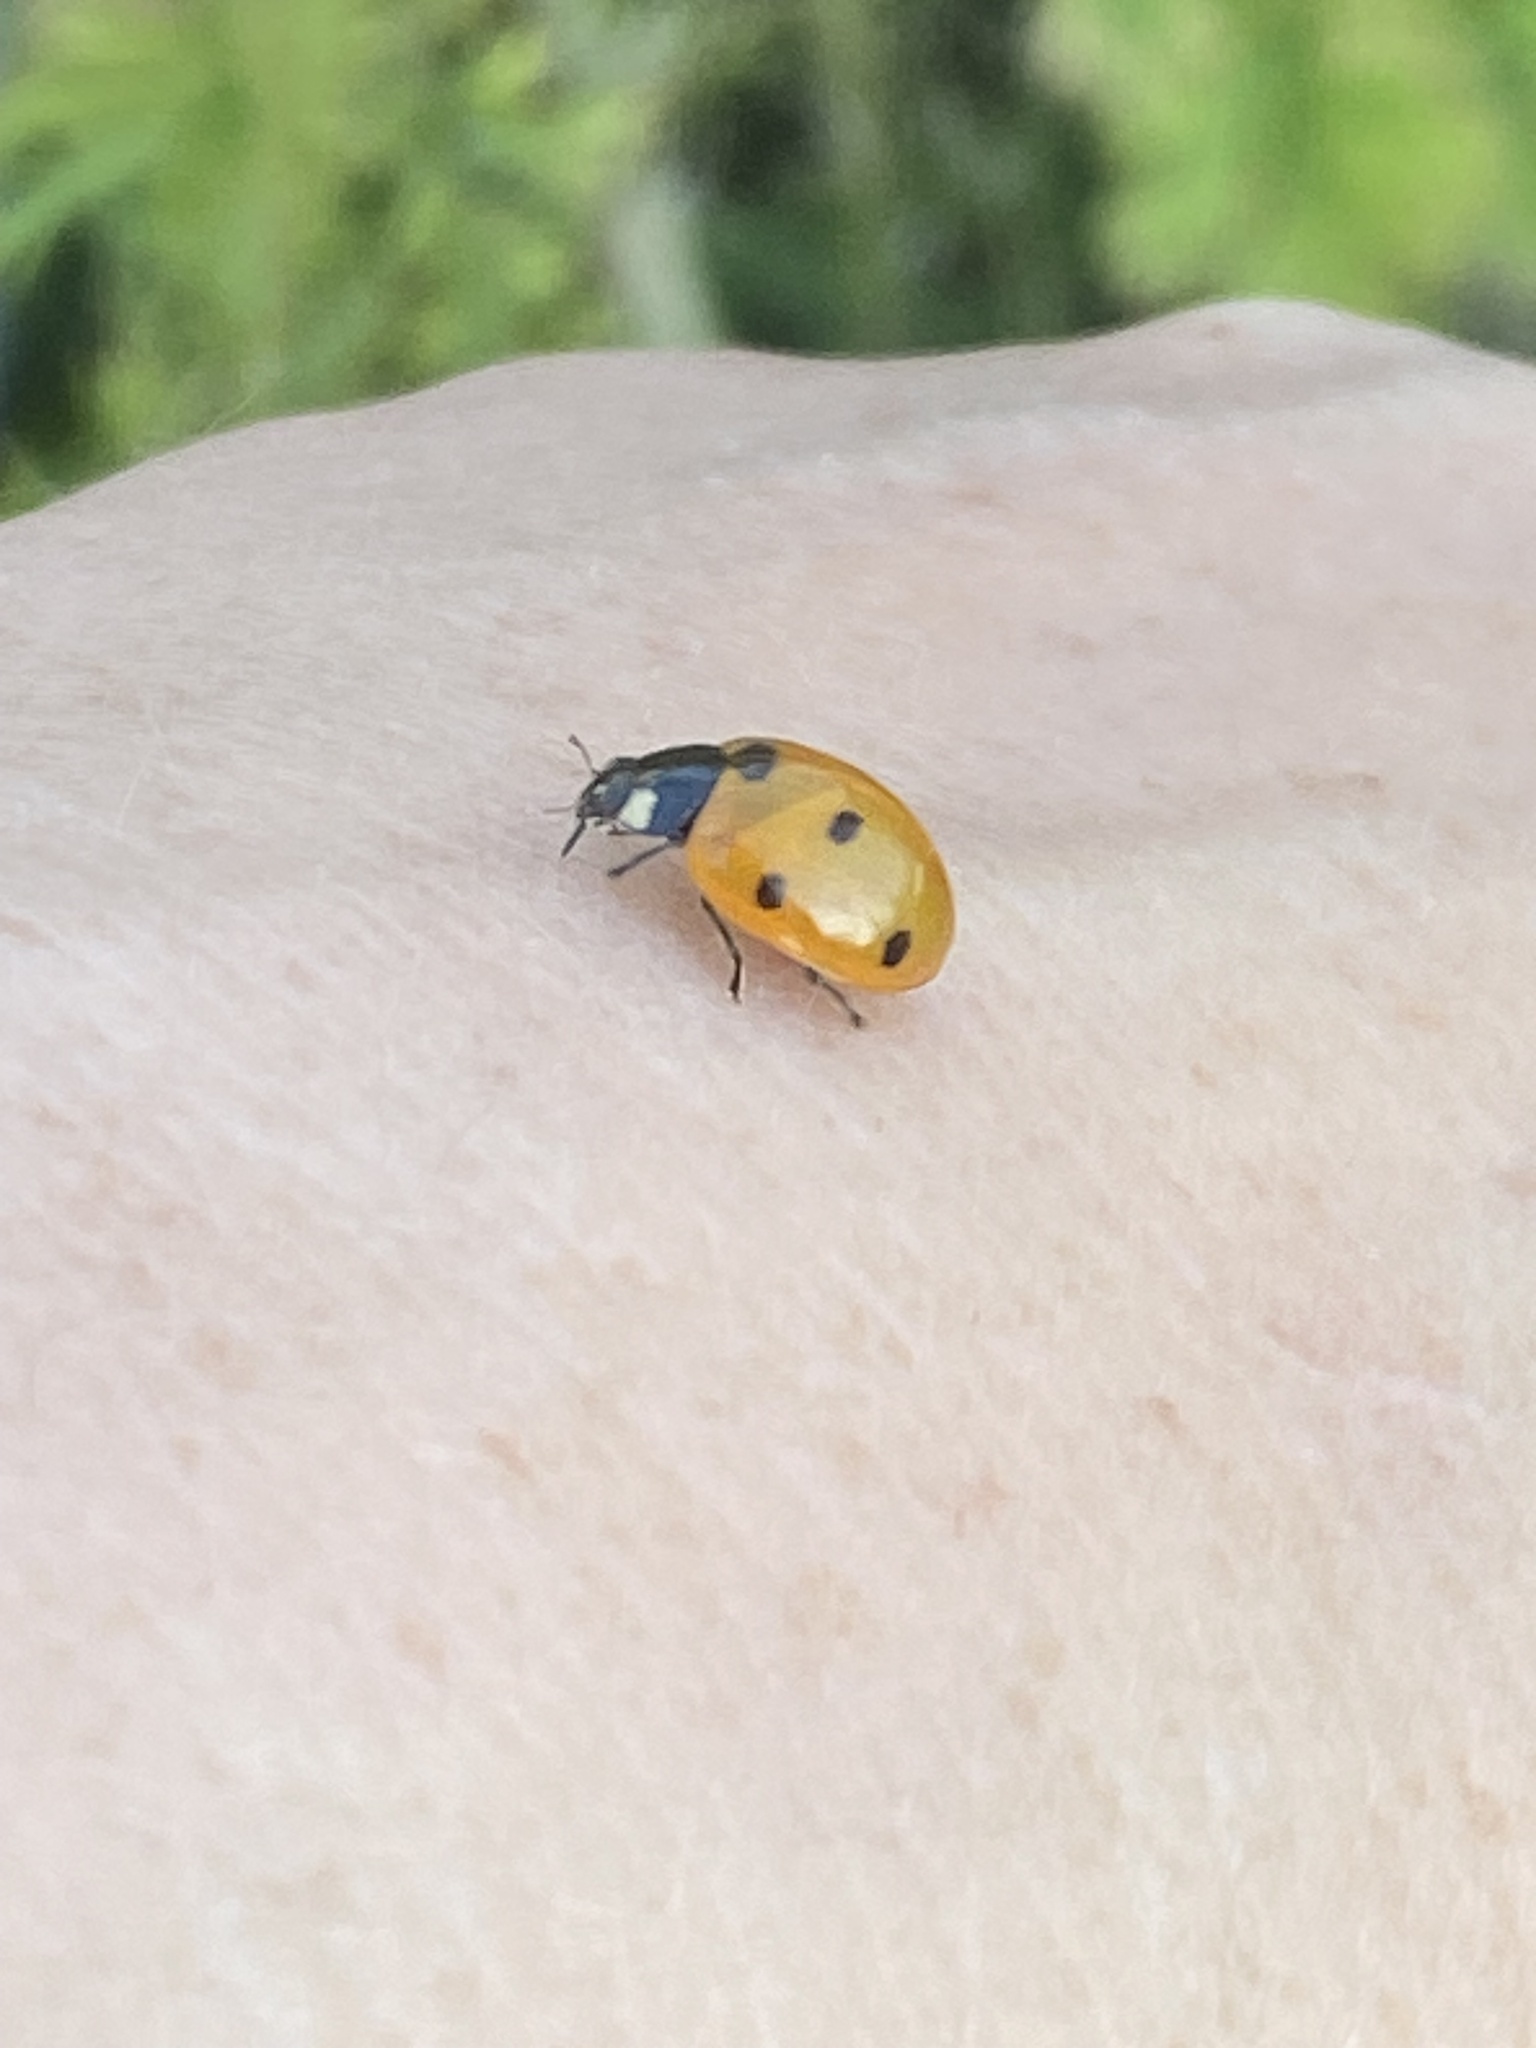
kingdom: Animalia
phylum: Arthropoda
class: Insecta
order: Coleoptera
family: Coccinellidae
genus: Coccinella
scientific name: Coccinella septempunctata
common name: Sevenspotted lady beetle
